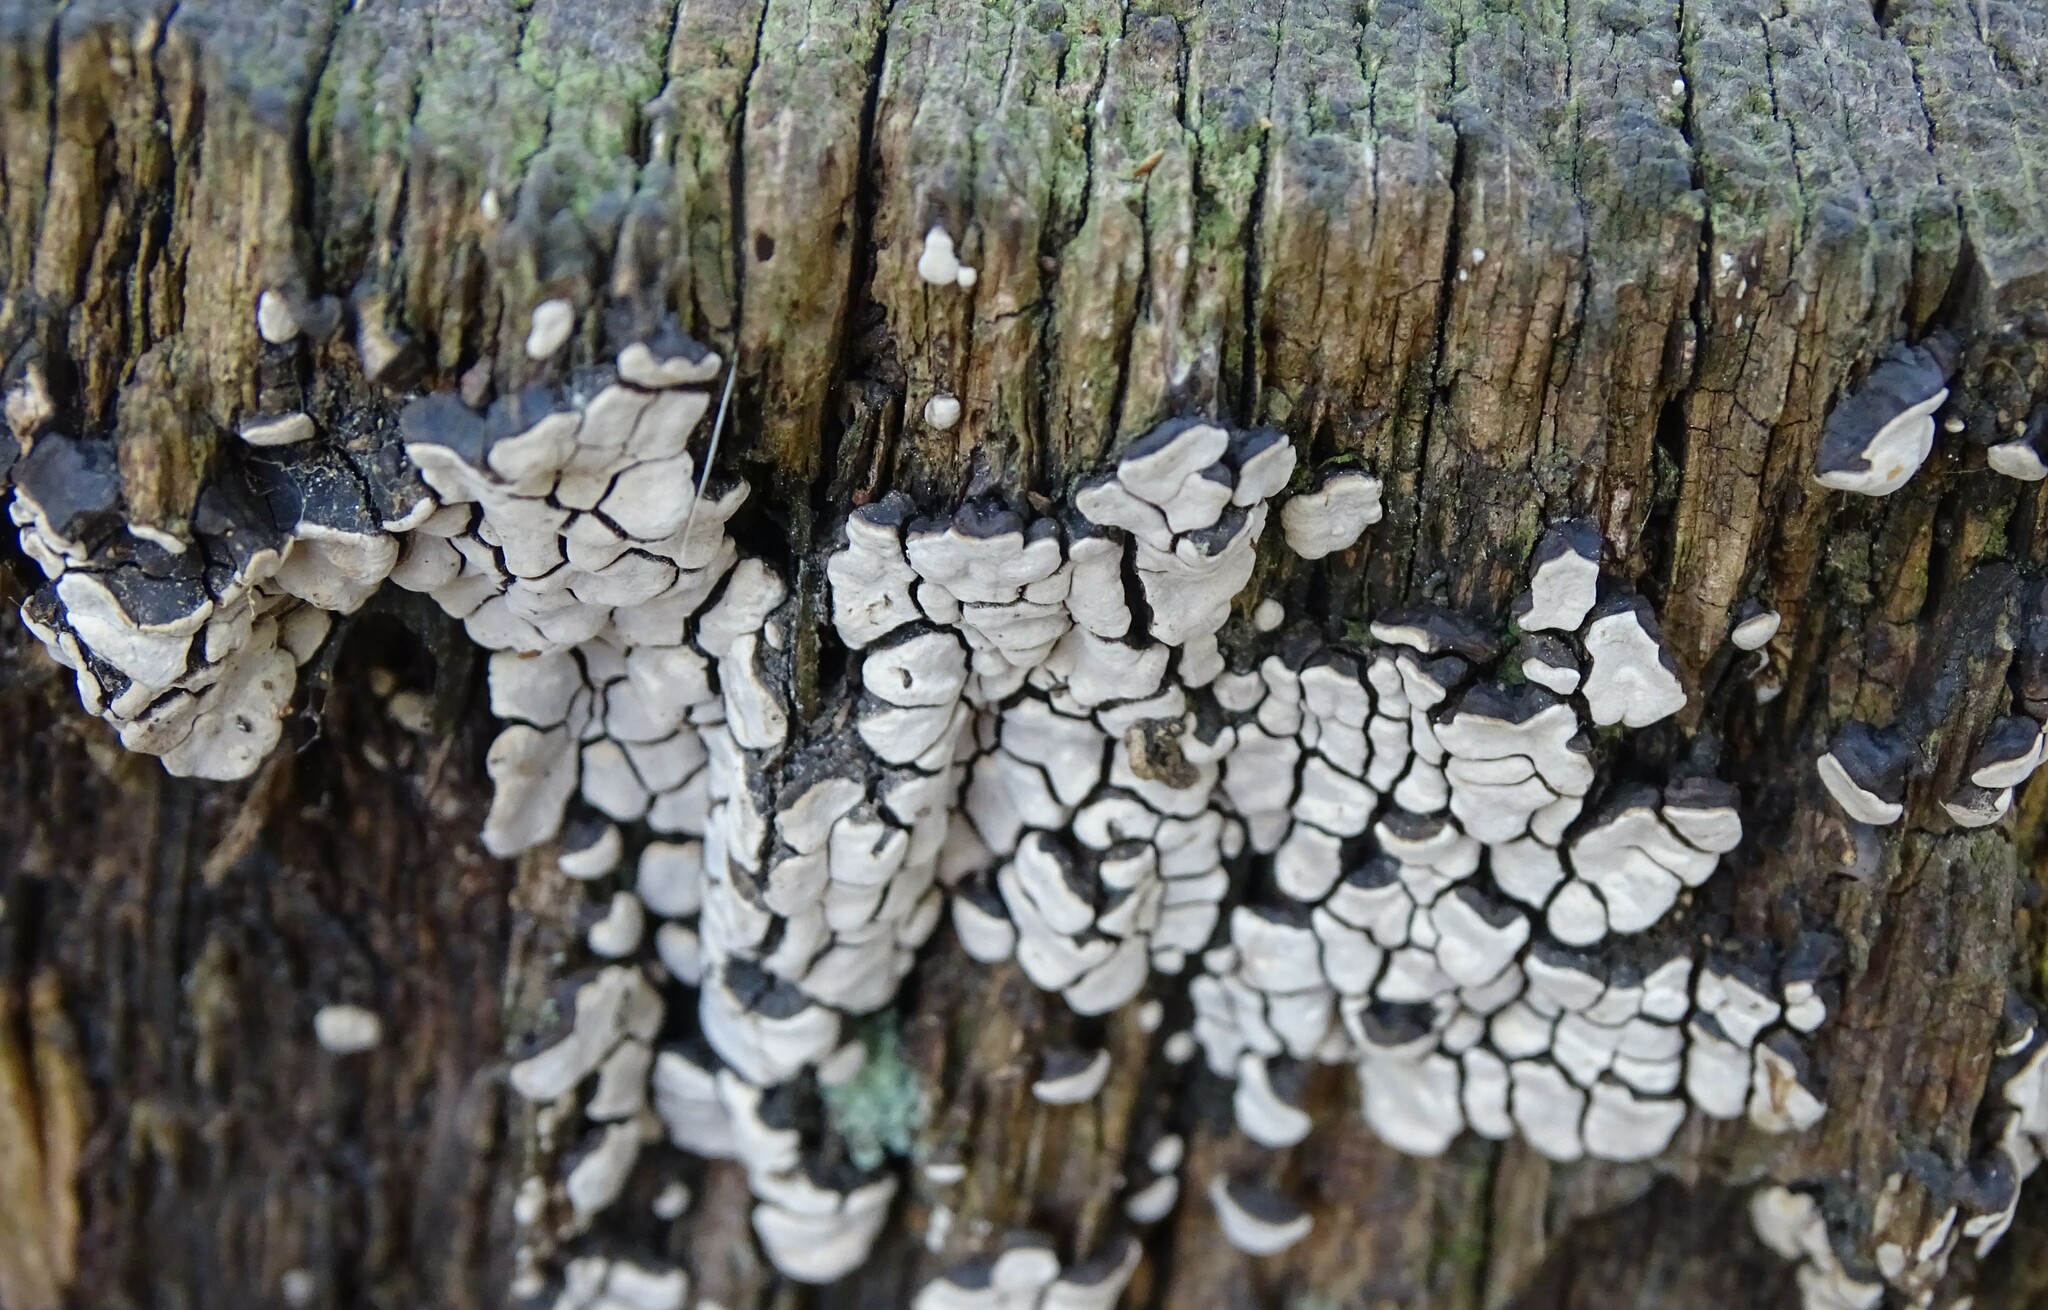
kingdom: Fungi
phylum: Basidiomycota
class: Agaricomycetes
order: Russulales
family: Stereaceae
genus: Xylobolus
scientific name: Xylobolus frustulatus
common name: Ceramic parchment
